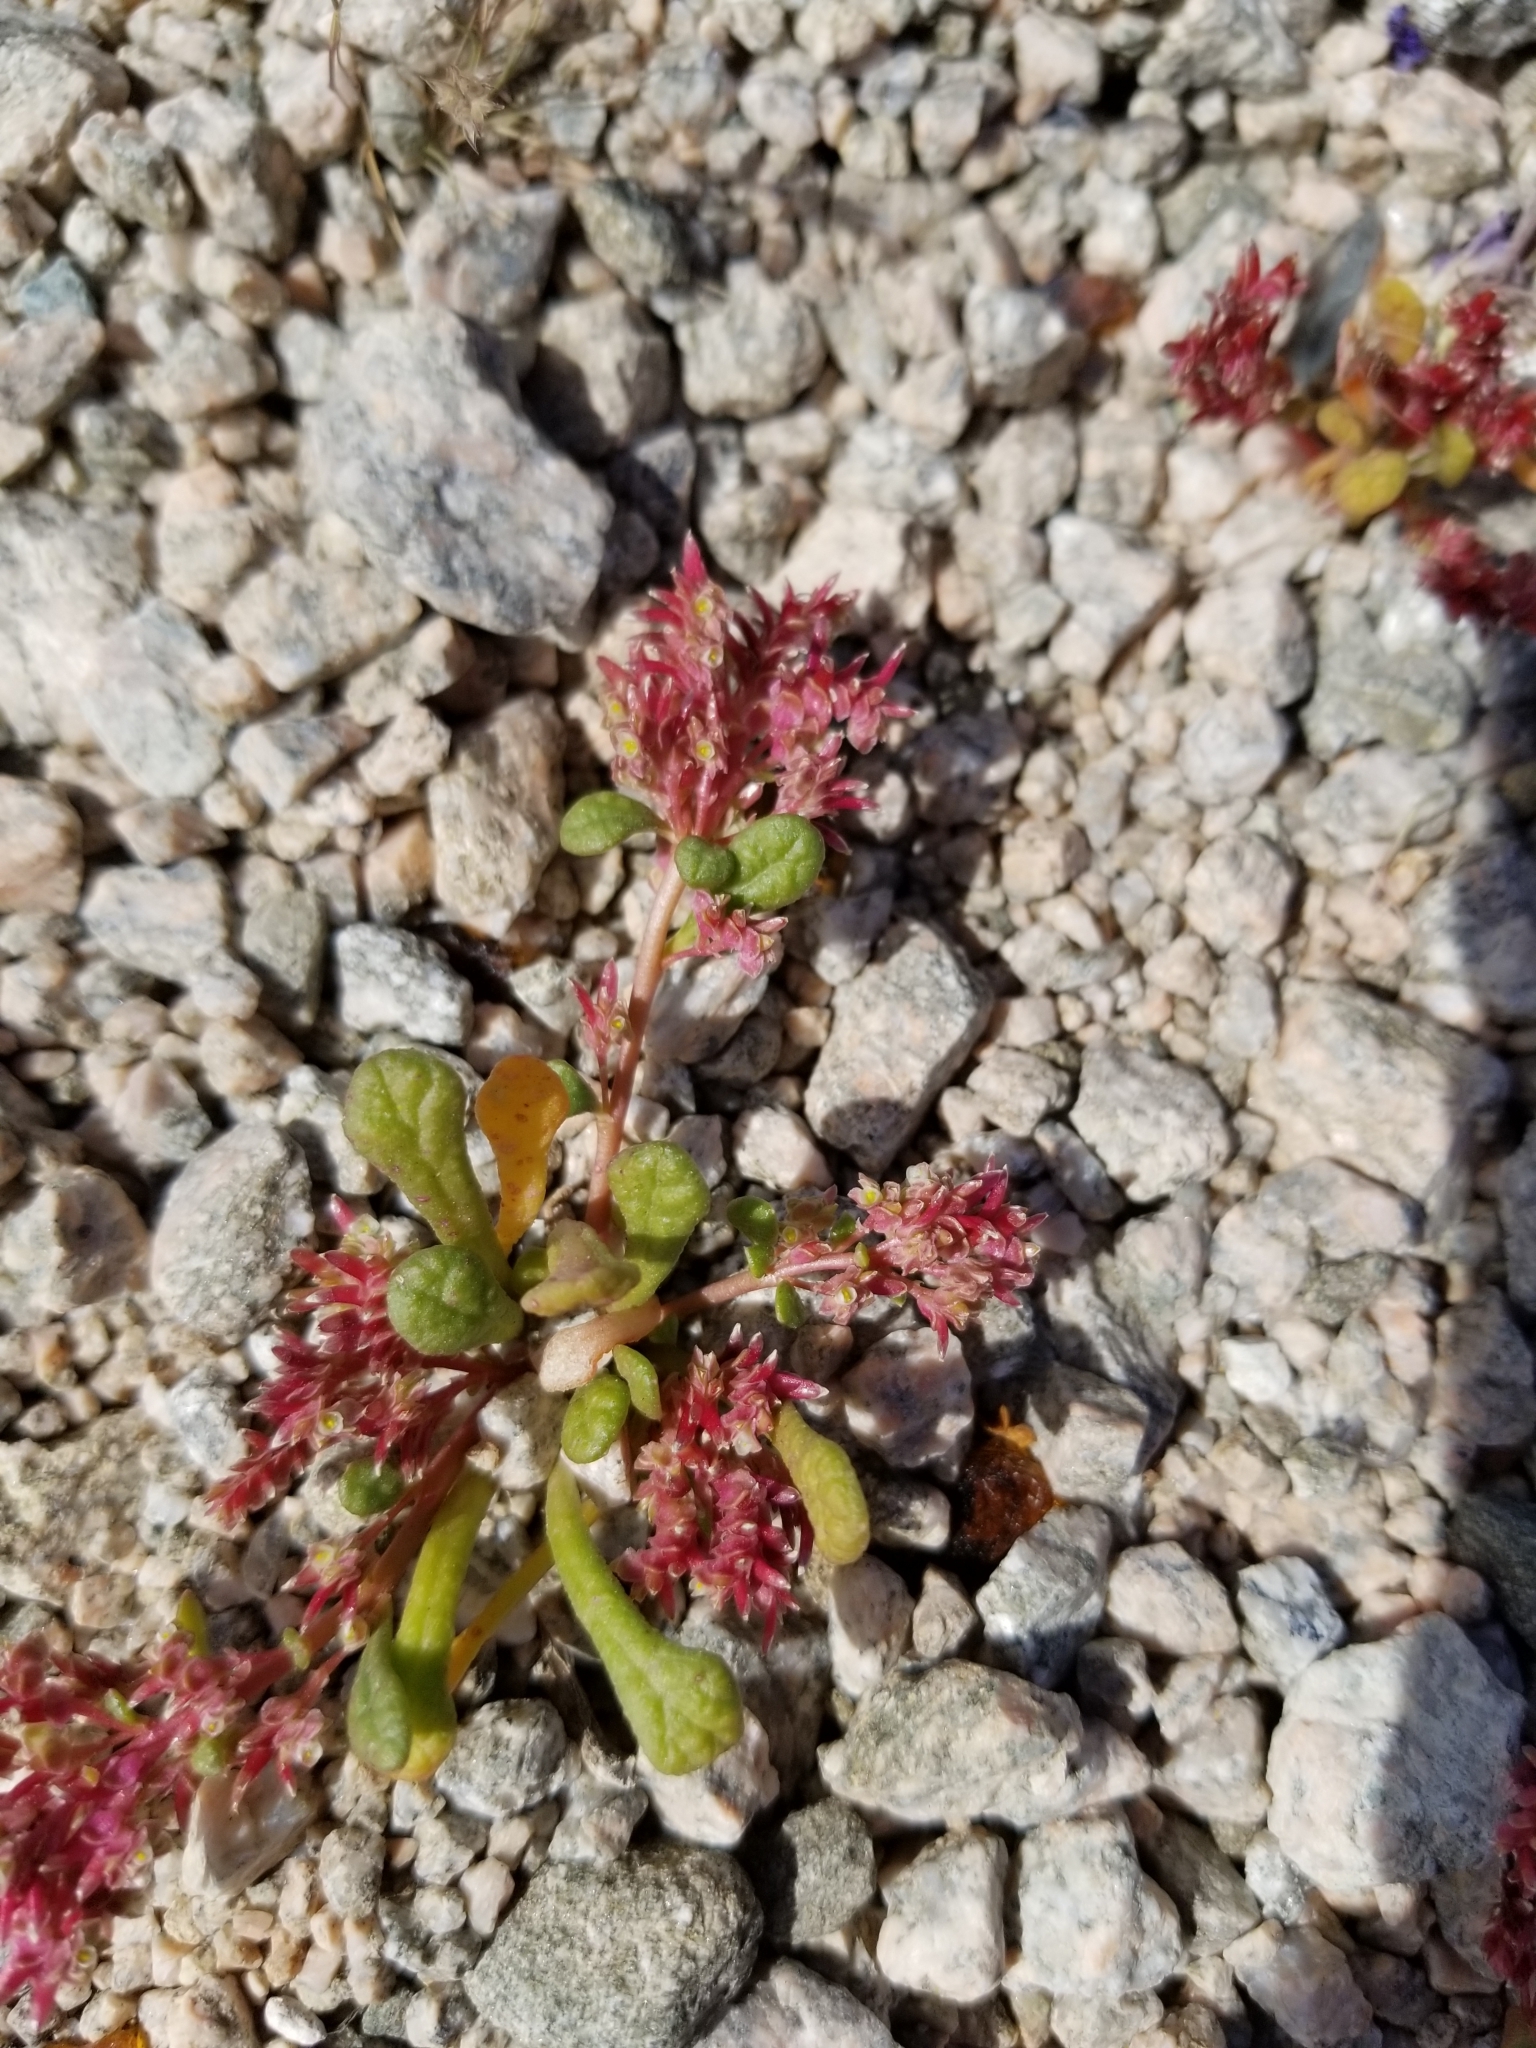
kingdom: Plantae
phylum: Tracheophyta
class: Magnoliopsida
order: Caryophyllales
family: Montiaceae
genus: Calyptridium
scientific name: Calyptridium monandrum
